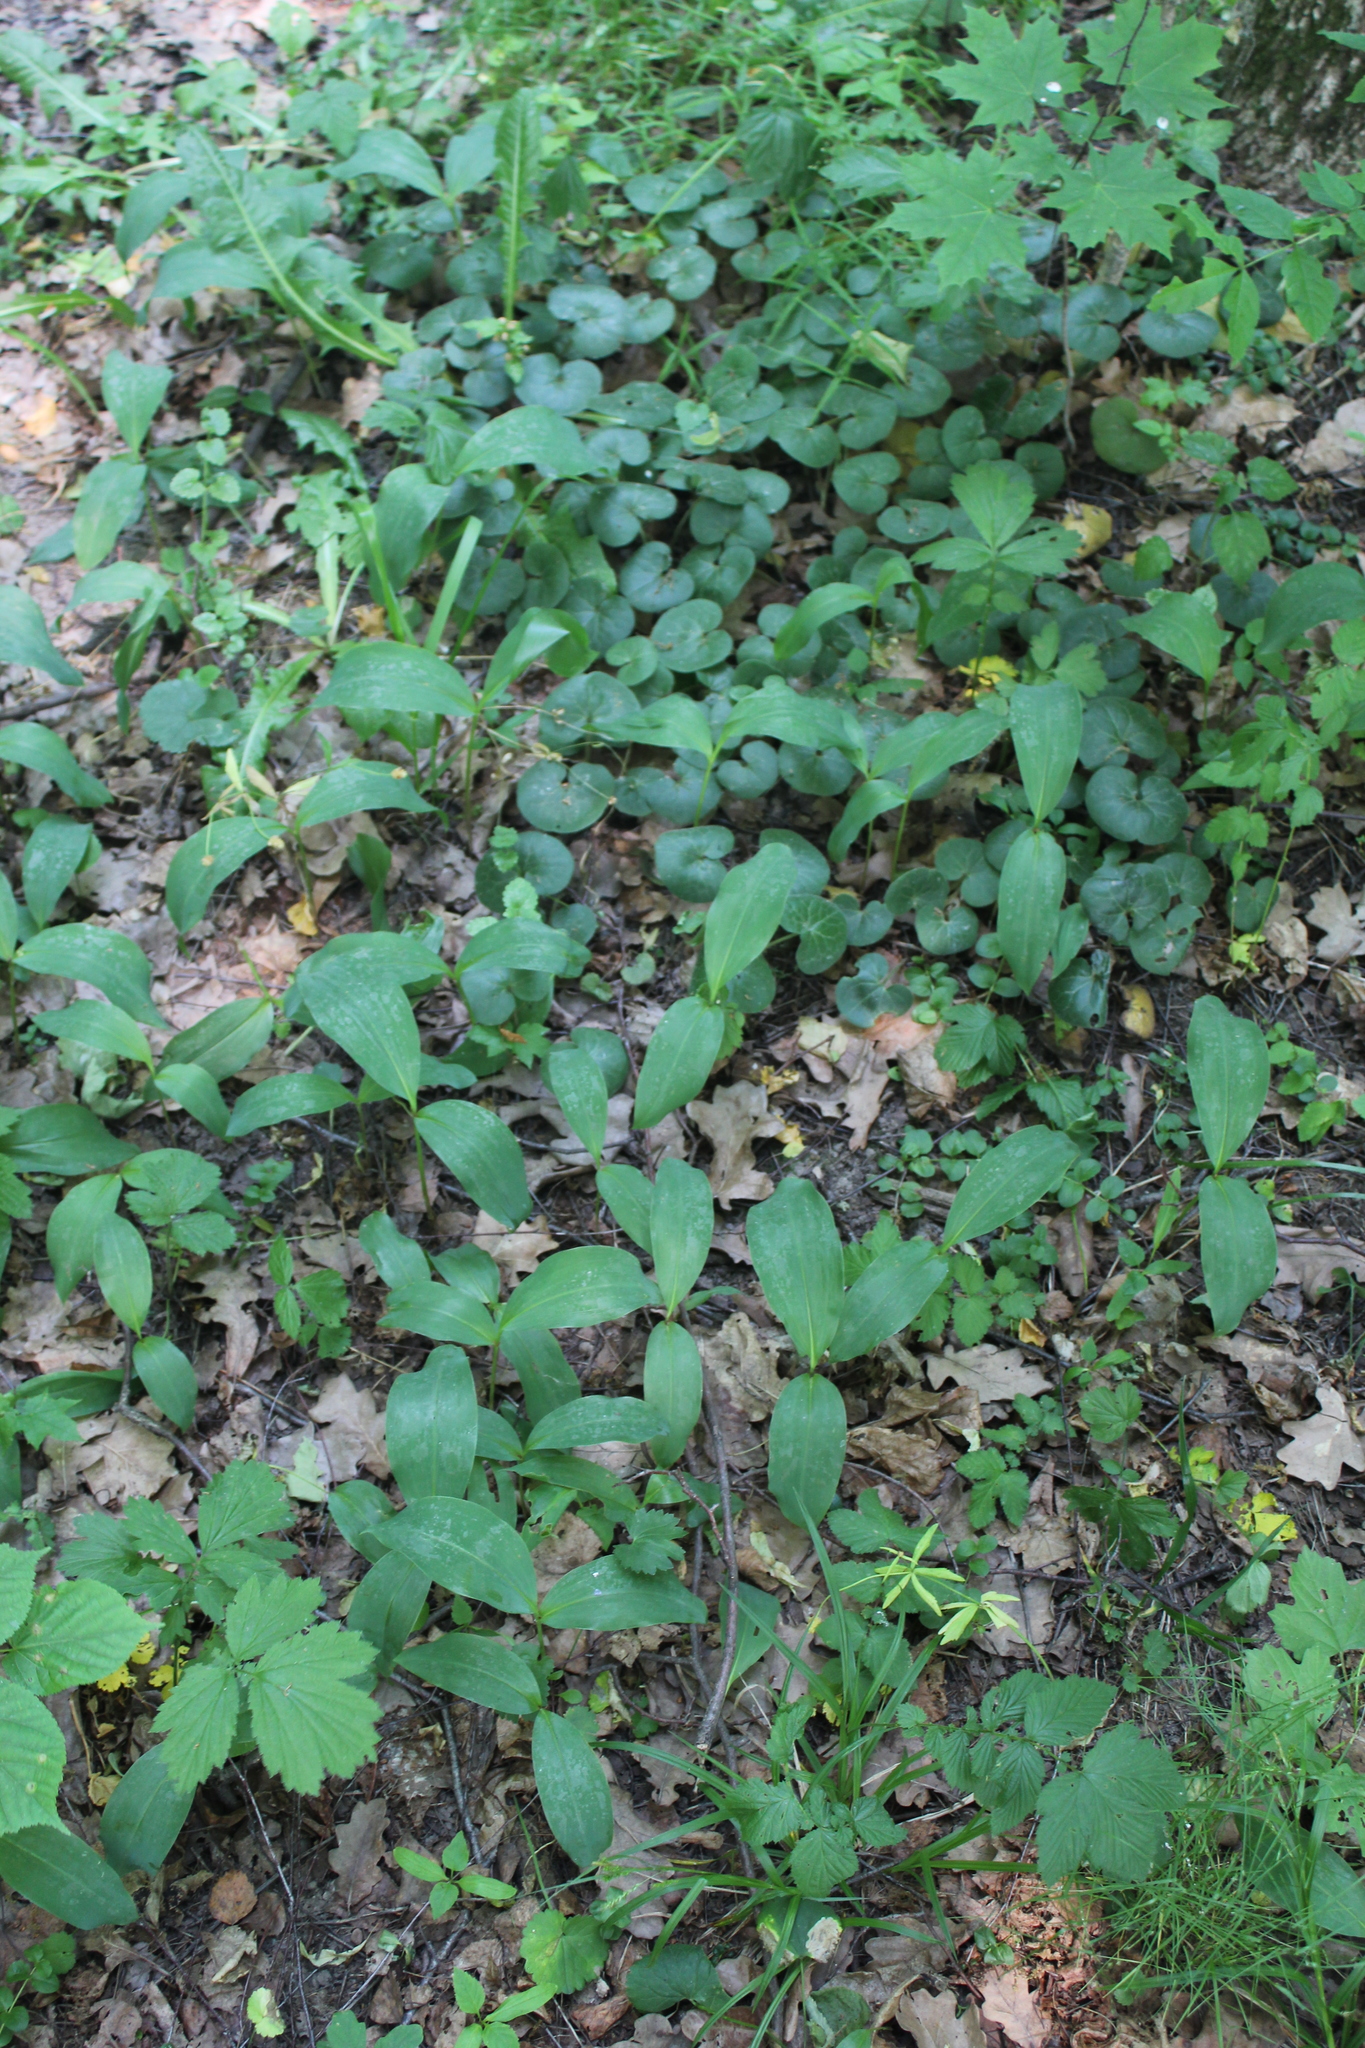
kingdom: Plantae
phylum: Tracheophyta
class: Liliopsida
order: Asparagales
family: Asparagaceae
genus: Convallaria
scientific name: Convallaria majalis
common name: Lily-of-the-valley
